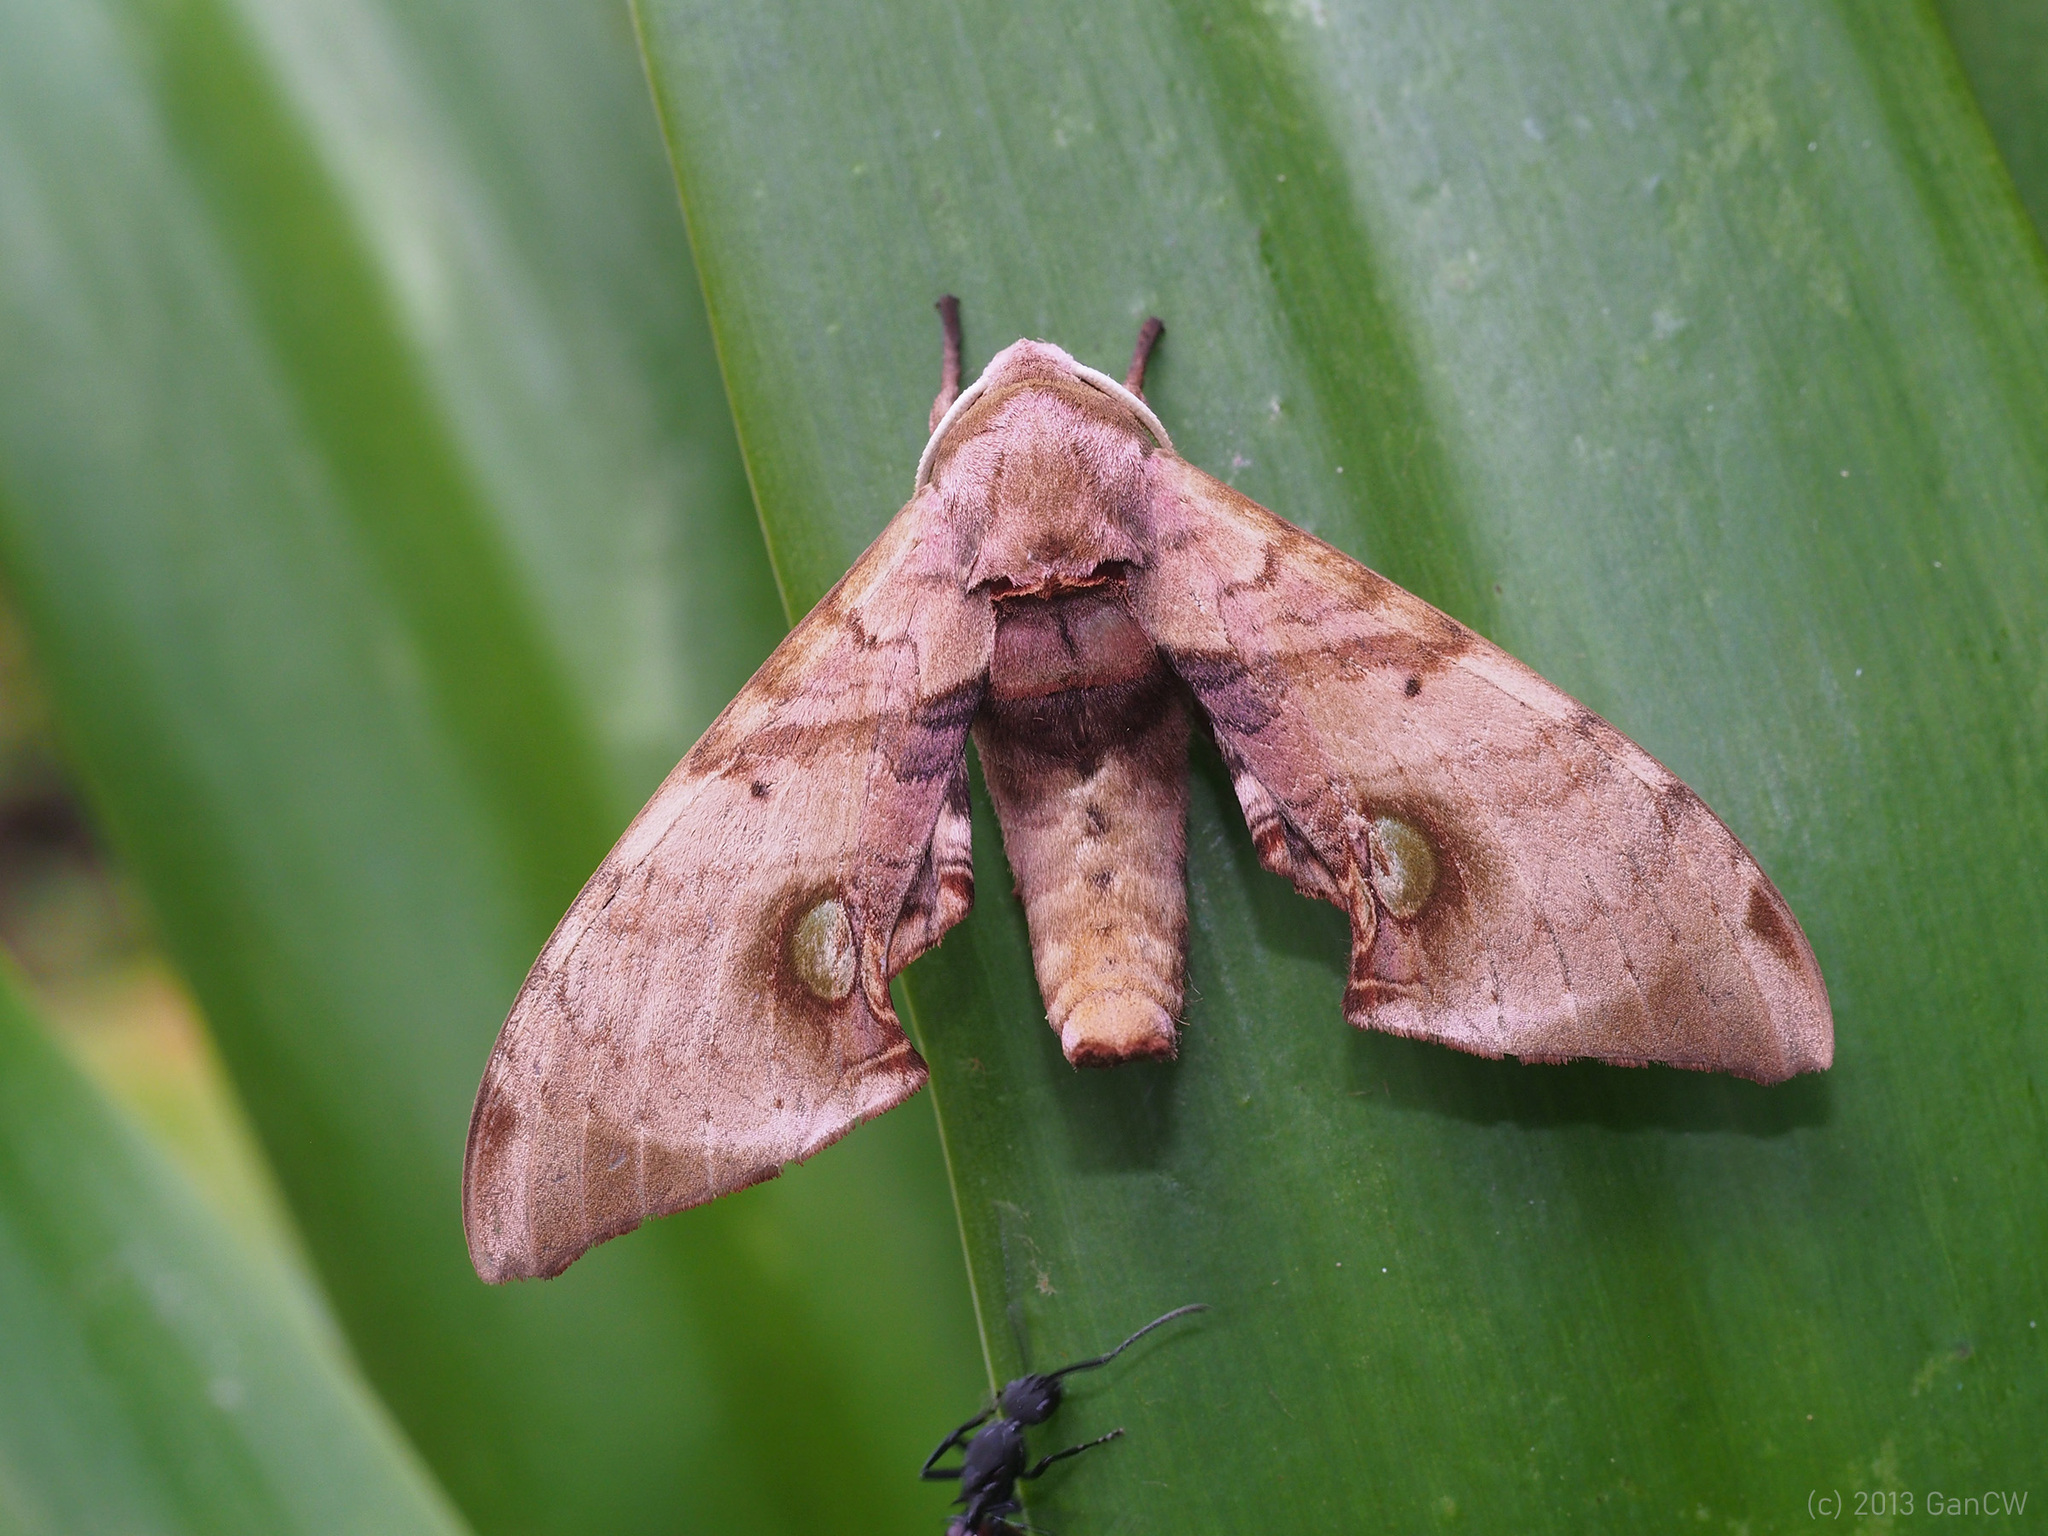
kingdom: Animalia
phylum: Arthropoda
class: Insecta
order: Lepidoptera
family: Sphingidae
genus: Daphnusa
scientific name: Daphnusa ocellaris
